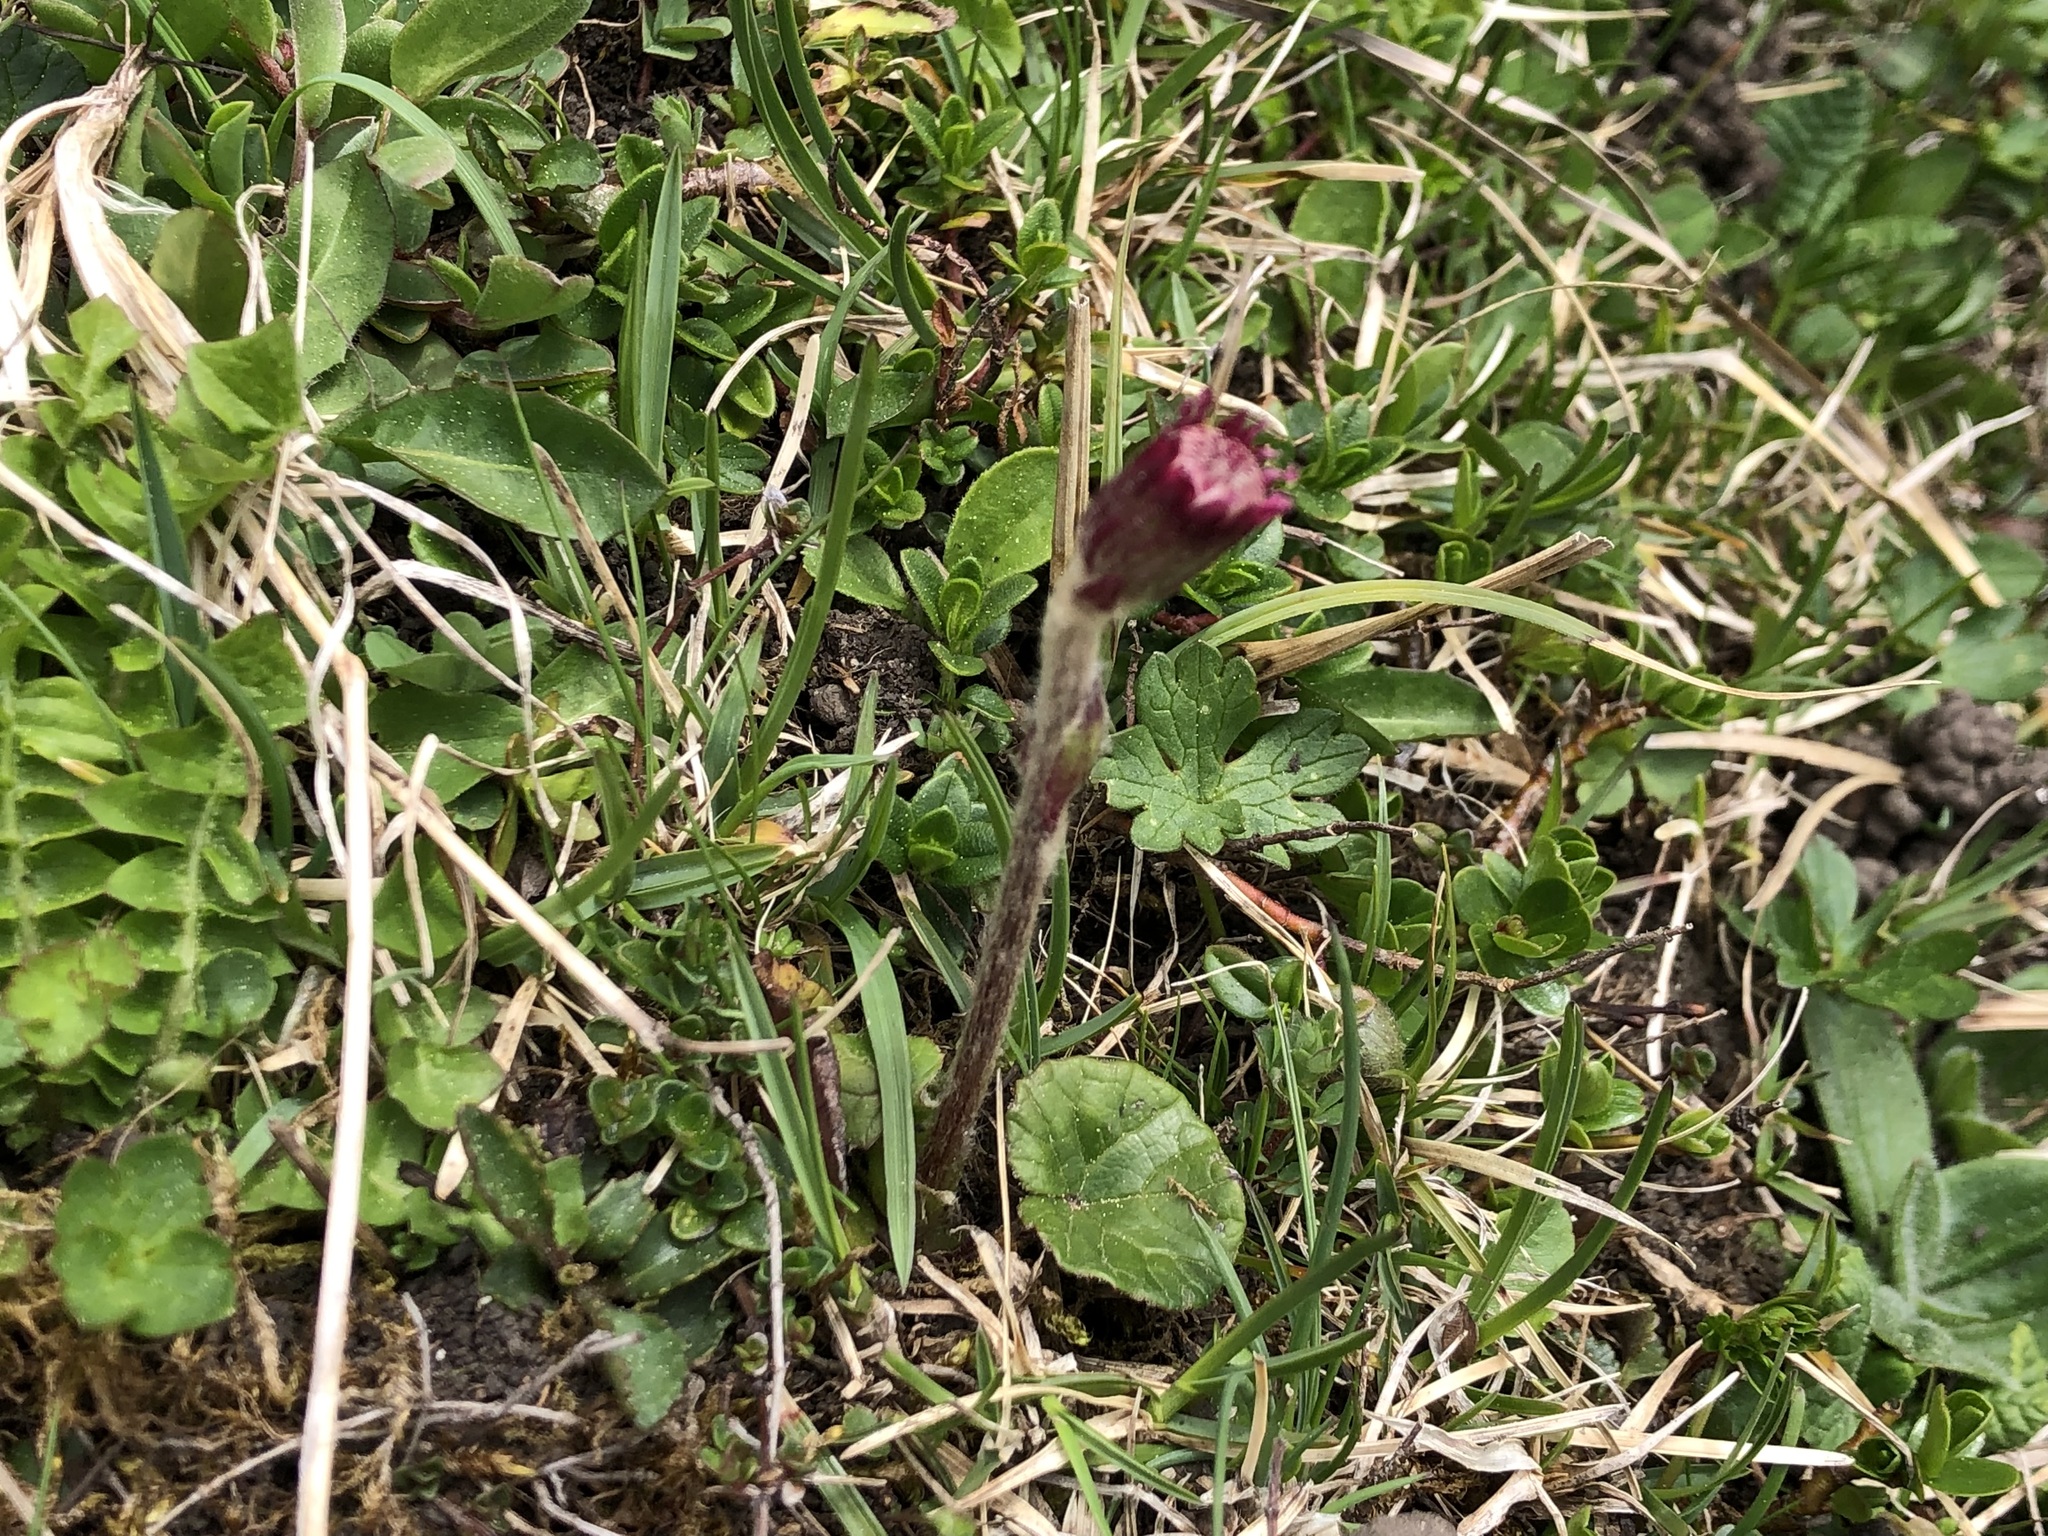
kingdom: Plantae
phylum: Tracheophyta
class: Magnoliopsida
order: Asterales
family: Asteraceae
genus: Homogyne
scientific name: Homogyne alpina
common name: Purple colt's-foot
